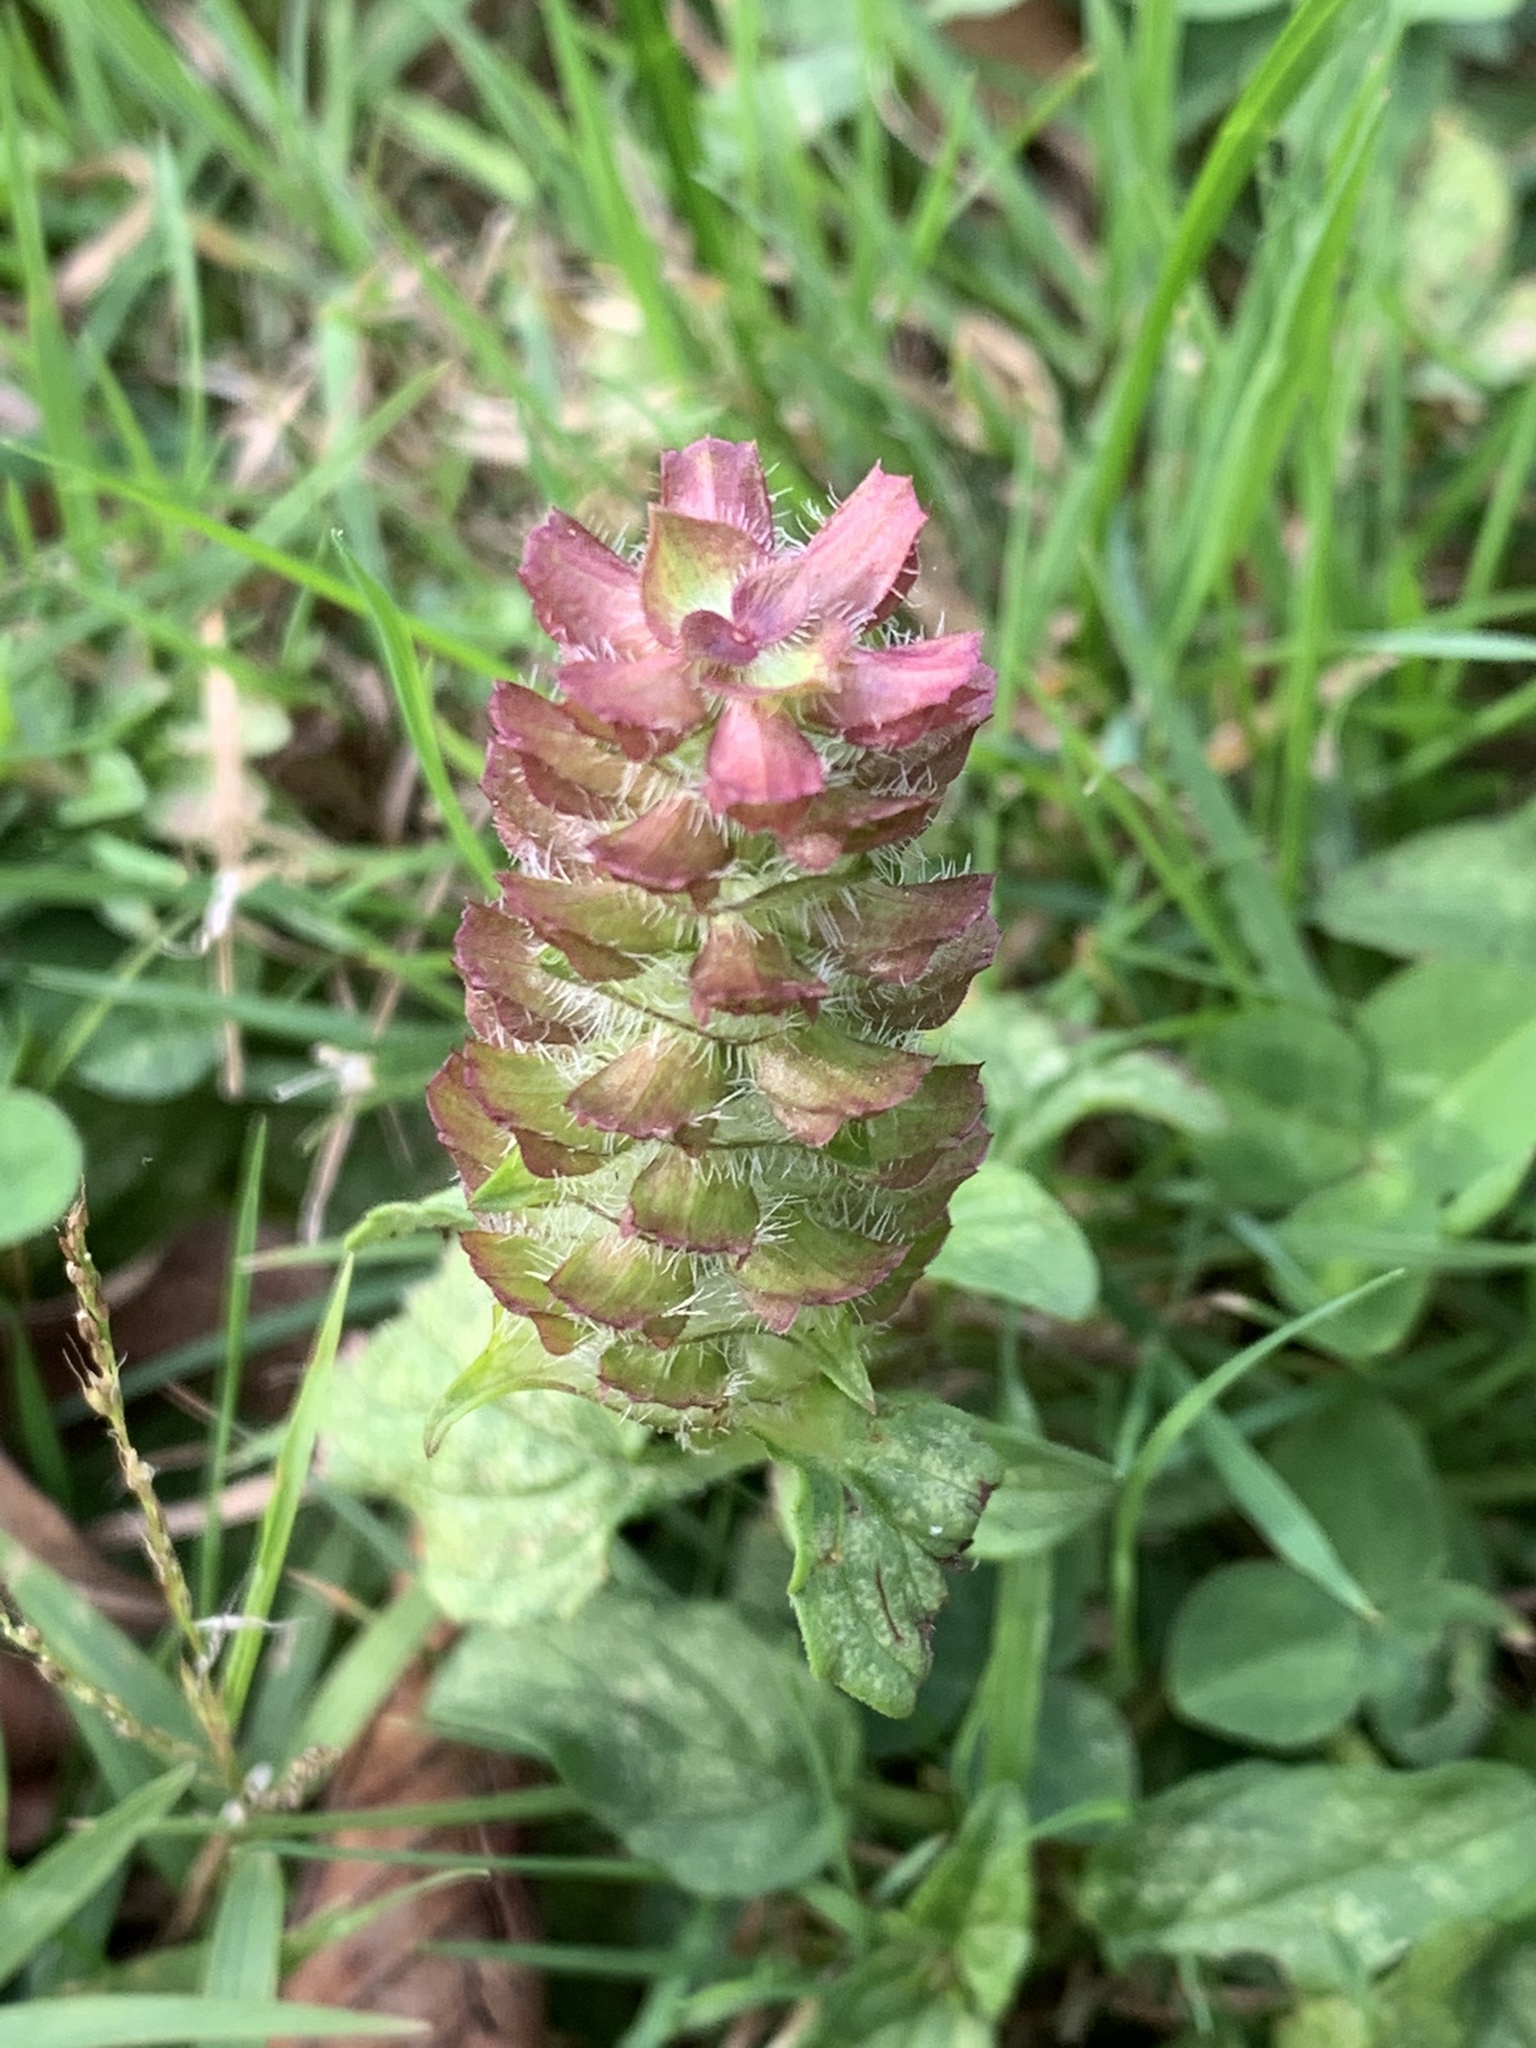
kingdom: Plantae
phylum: Tracheophyta
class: Magnoliopsida
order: Lamiales
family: Lamiaceae
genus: Prunella
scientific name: Prunella vulgaris
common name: Heal-all
